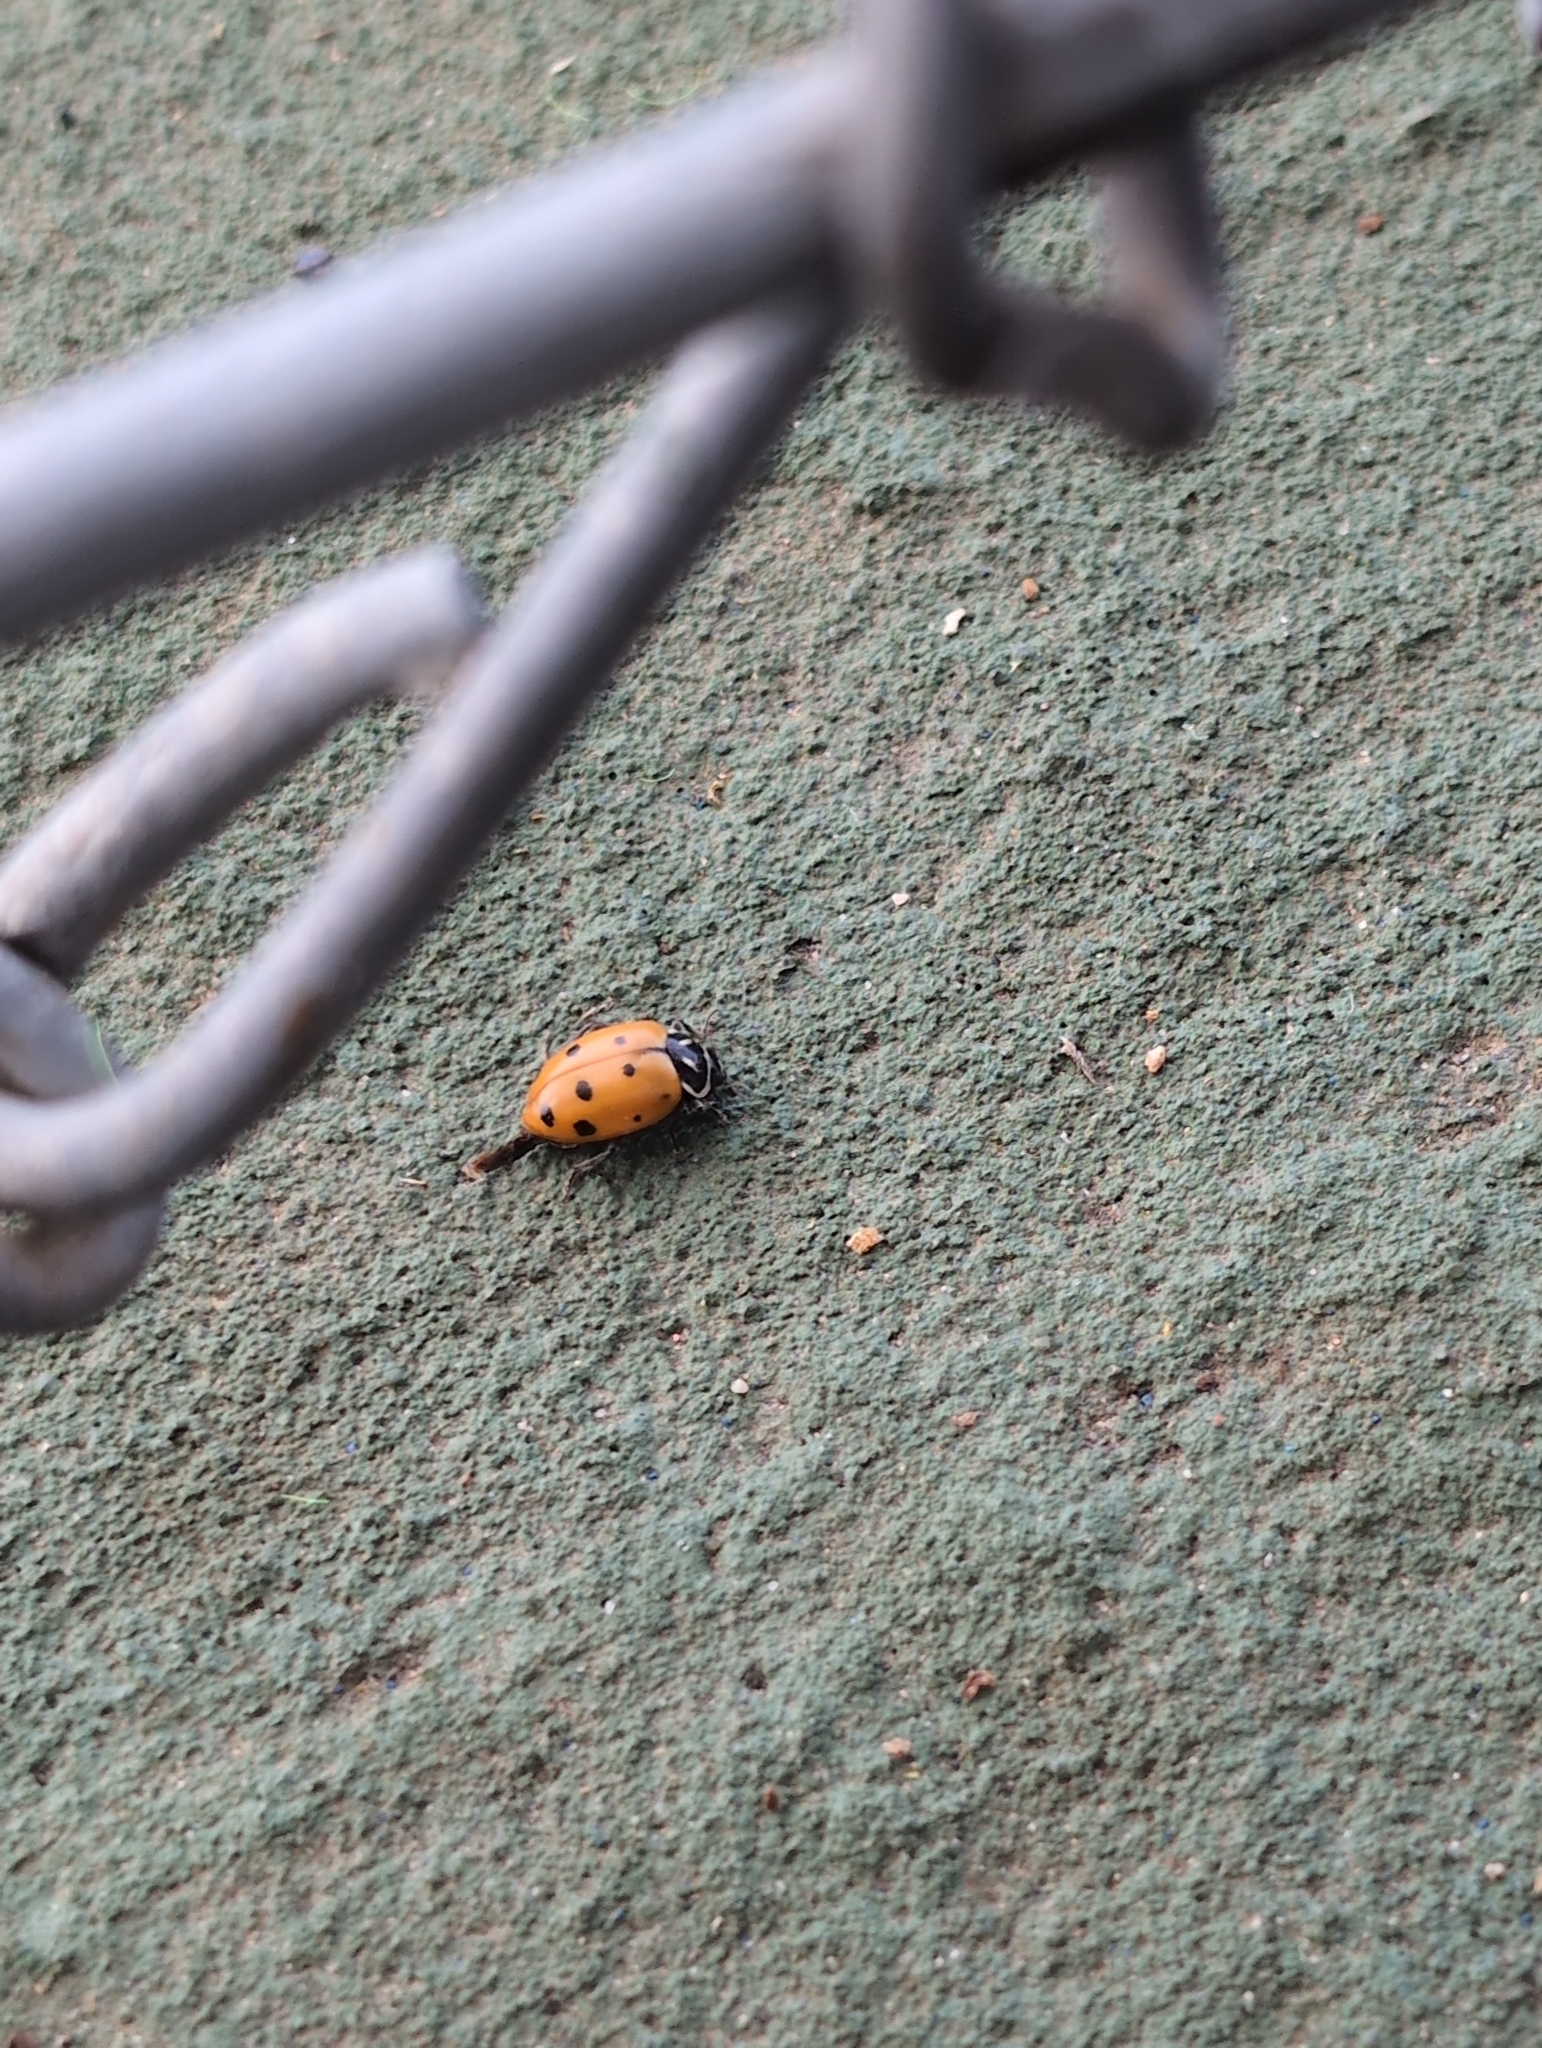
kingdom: Animalia
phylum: Arthropoda
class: Insecta
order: Coleoptera
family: Coccinellidae
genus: Hippodamia
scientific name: Hippodamia convergens
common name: Convergent lady beetle
